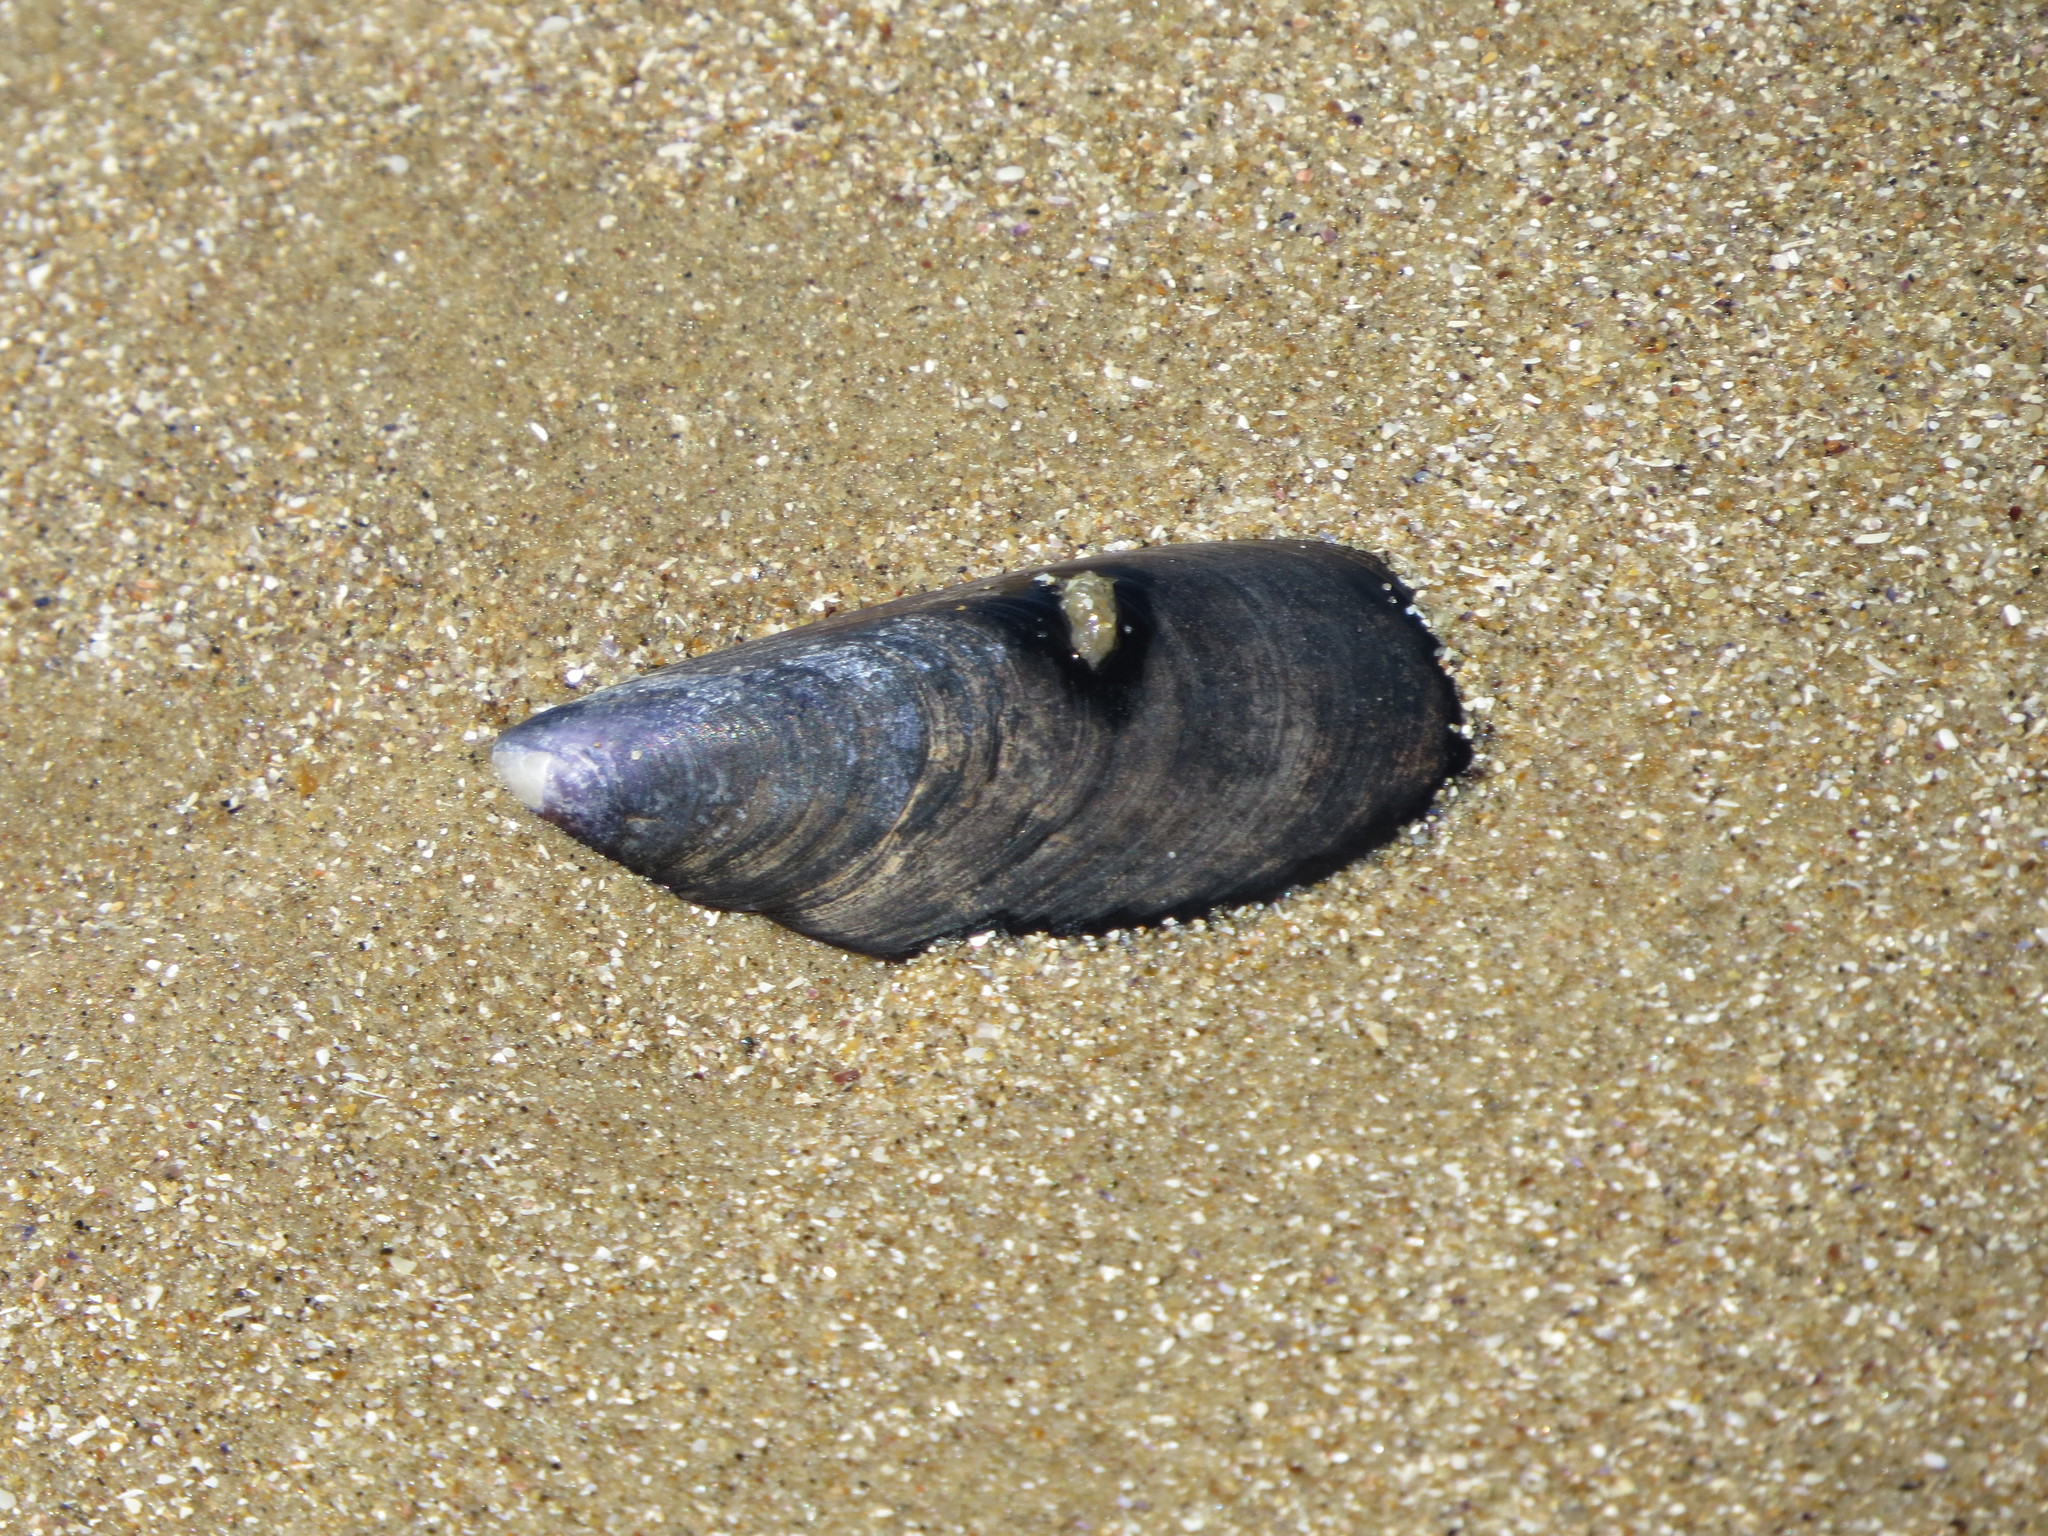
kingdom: Animalia
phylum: Mollusca
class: Bivalvia
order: Mytilida
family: Mytilidae
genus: Mytilus
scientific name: Mytilus platensis
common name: Chilean mussel
